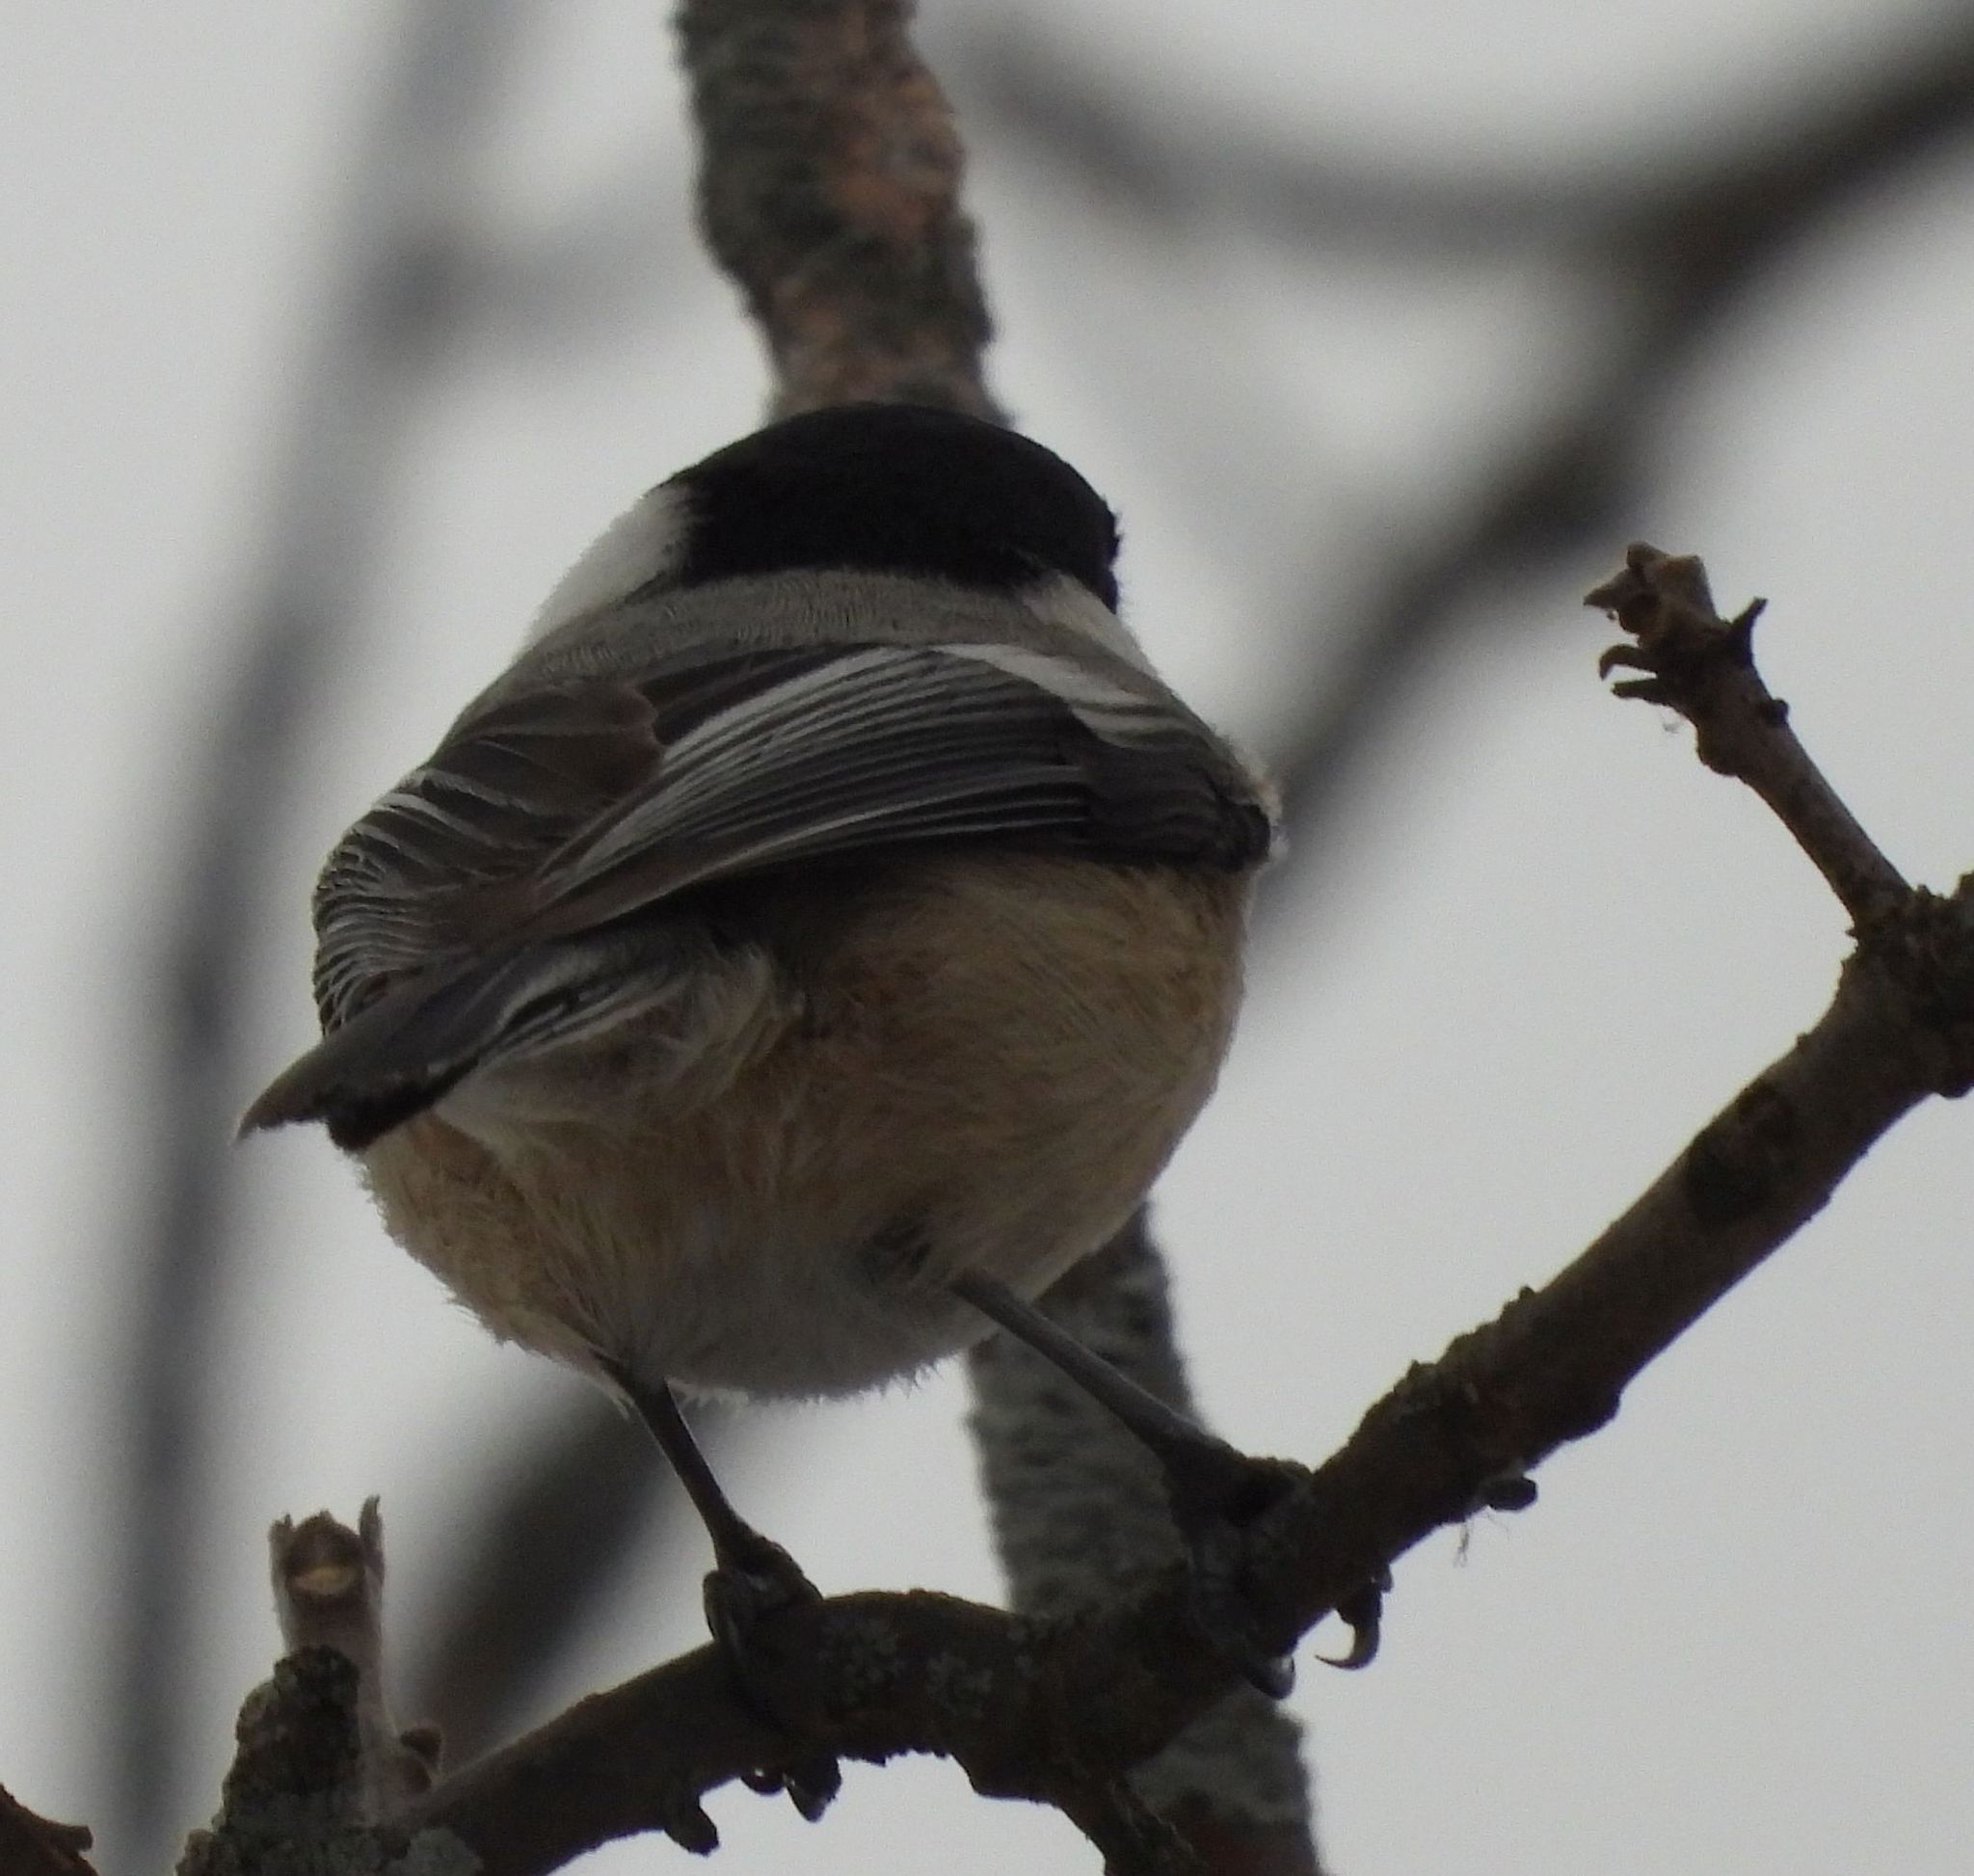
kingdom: Animalia
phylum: Chordata
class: Aves
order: Passeriformes
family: Paridae
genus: Poecile
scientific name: Poecile atricapillus
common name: Black-capped chickadee
